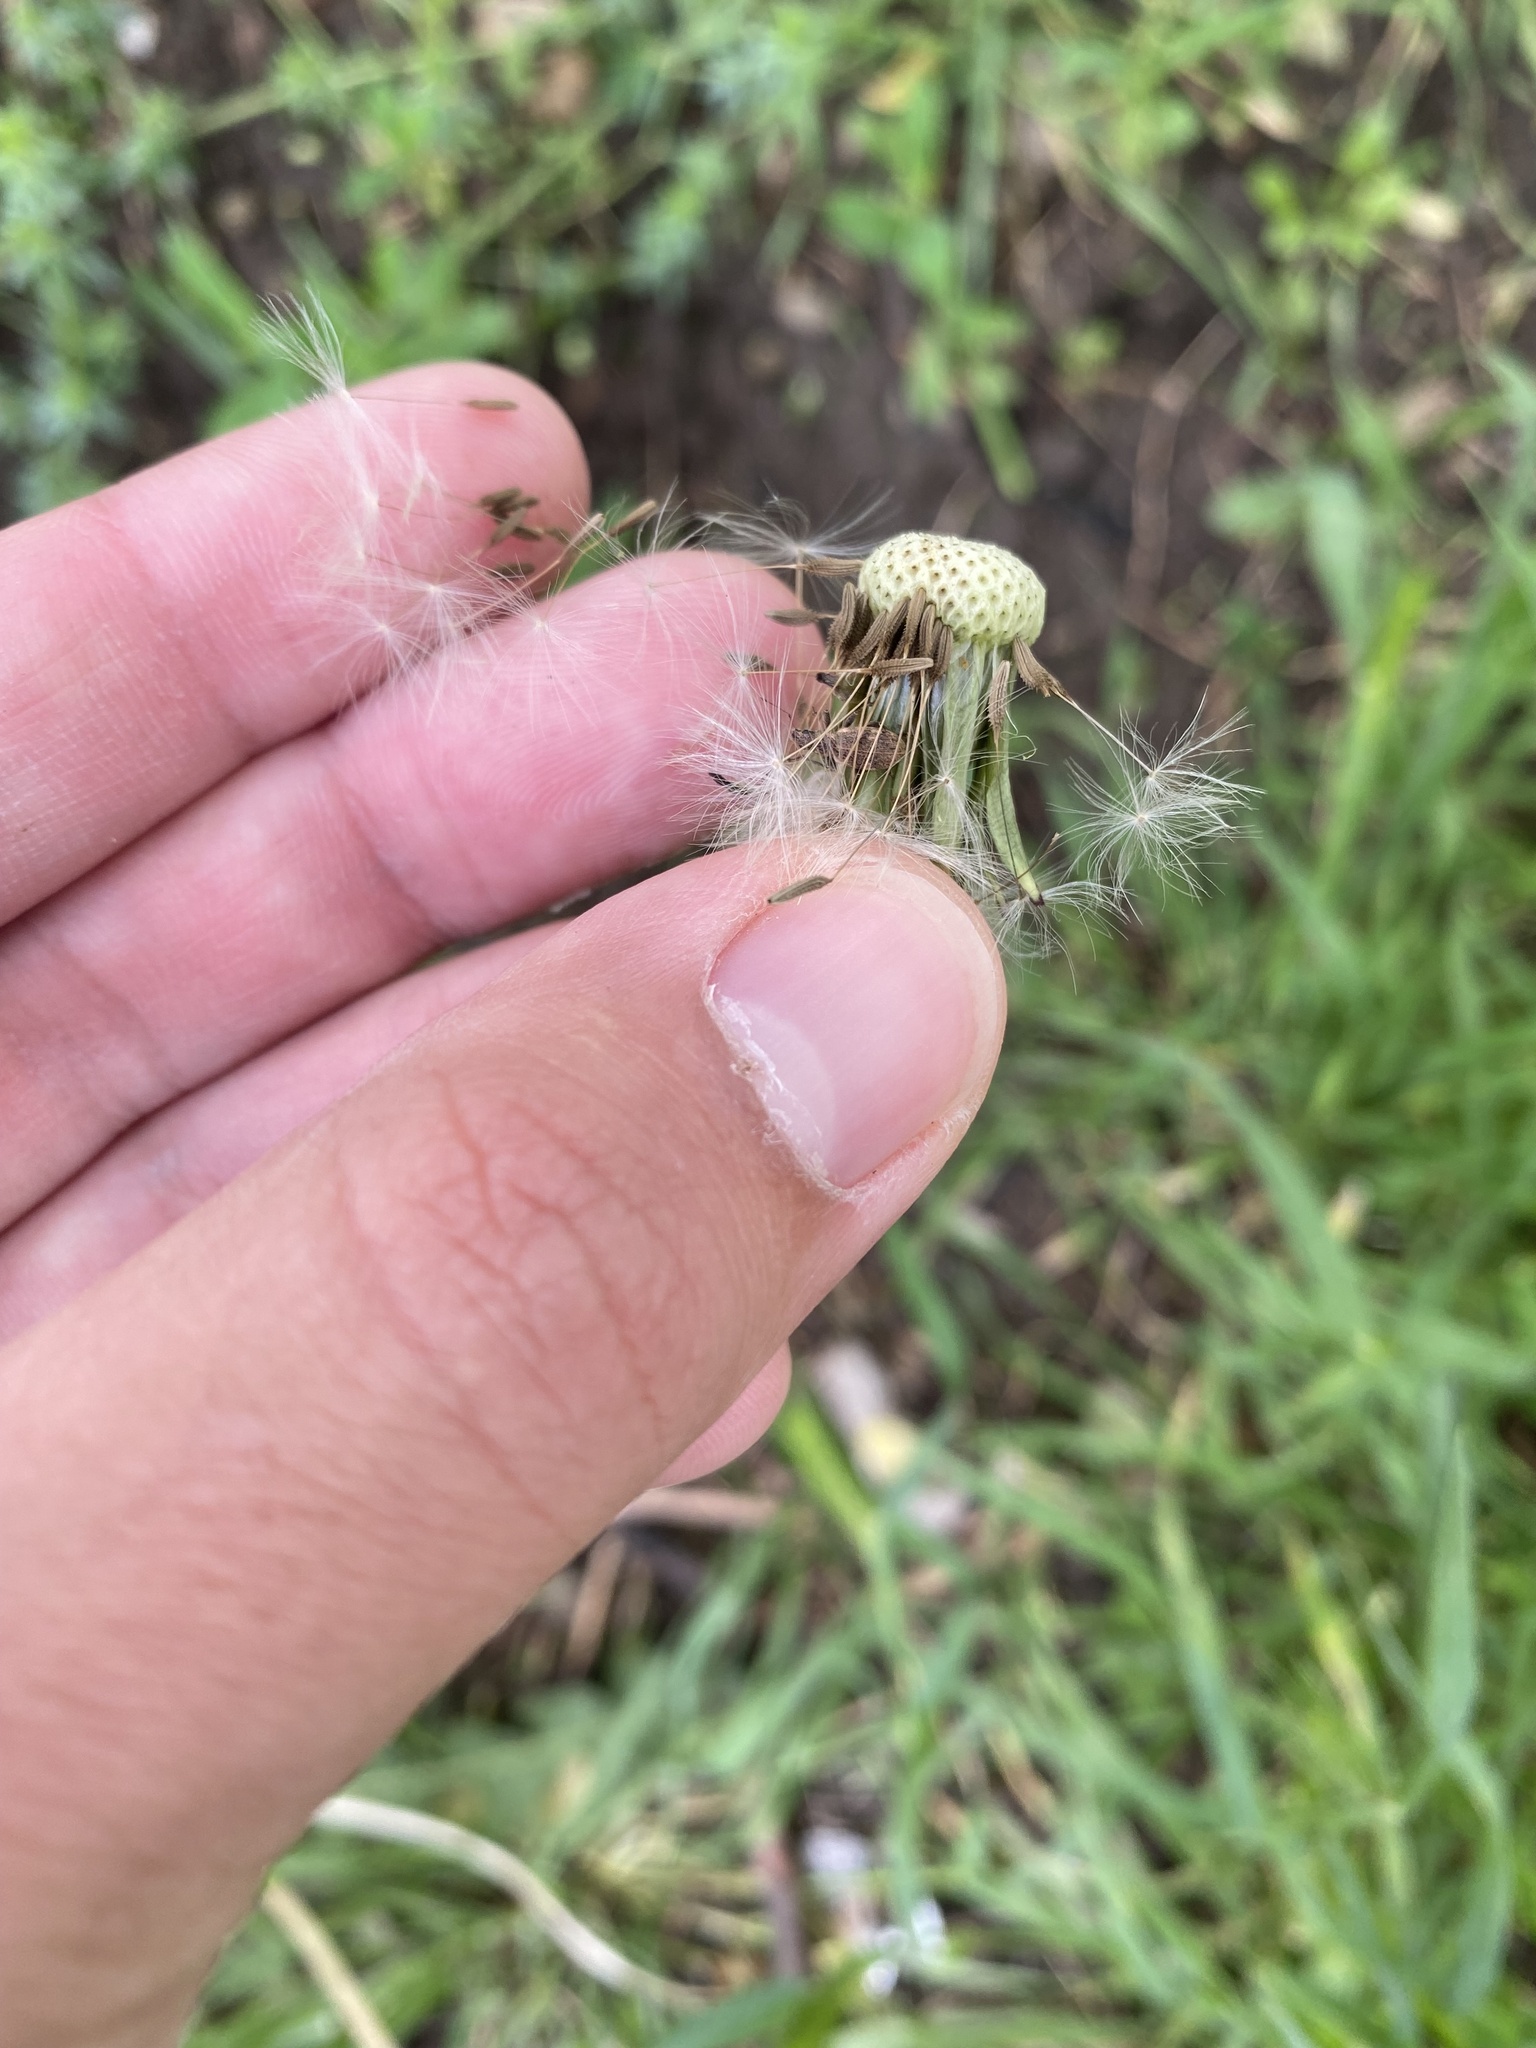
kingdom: Plantae
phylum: Tracheophyta
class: Magnoliopsida
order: Asterales
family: Asteraceae
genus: Taraxacum
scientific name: Taraxacum officinale
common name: Common dandelion
